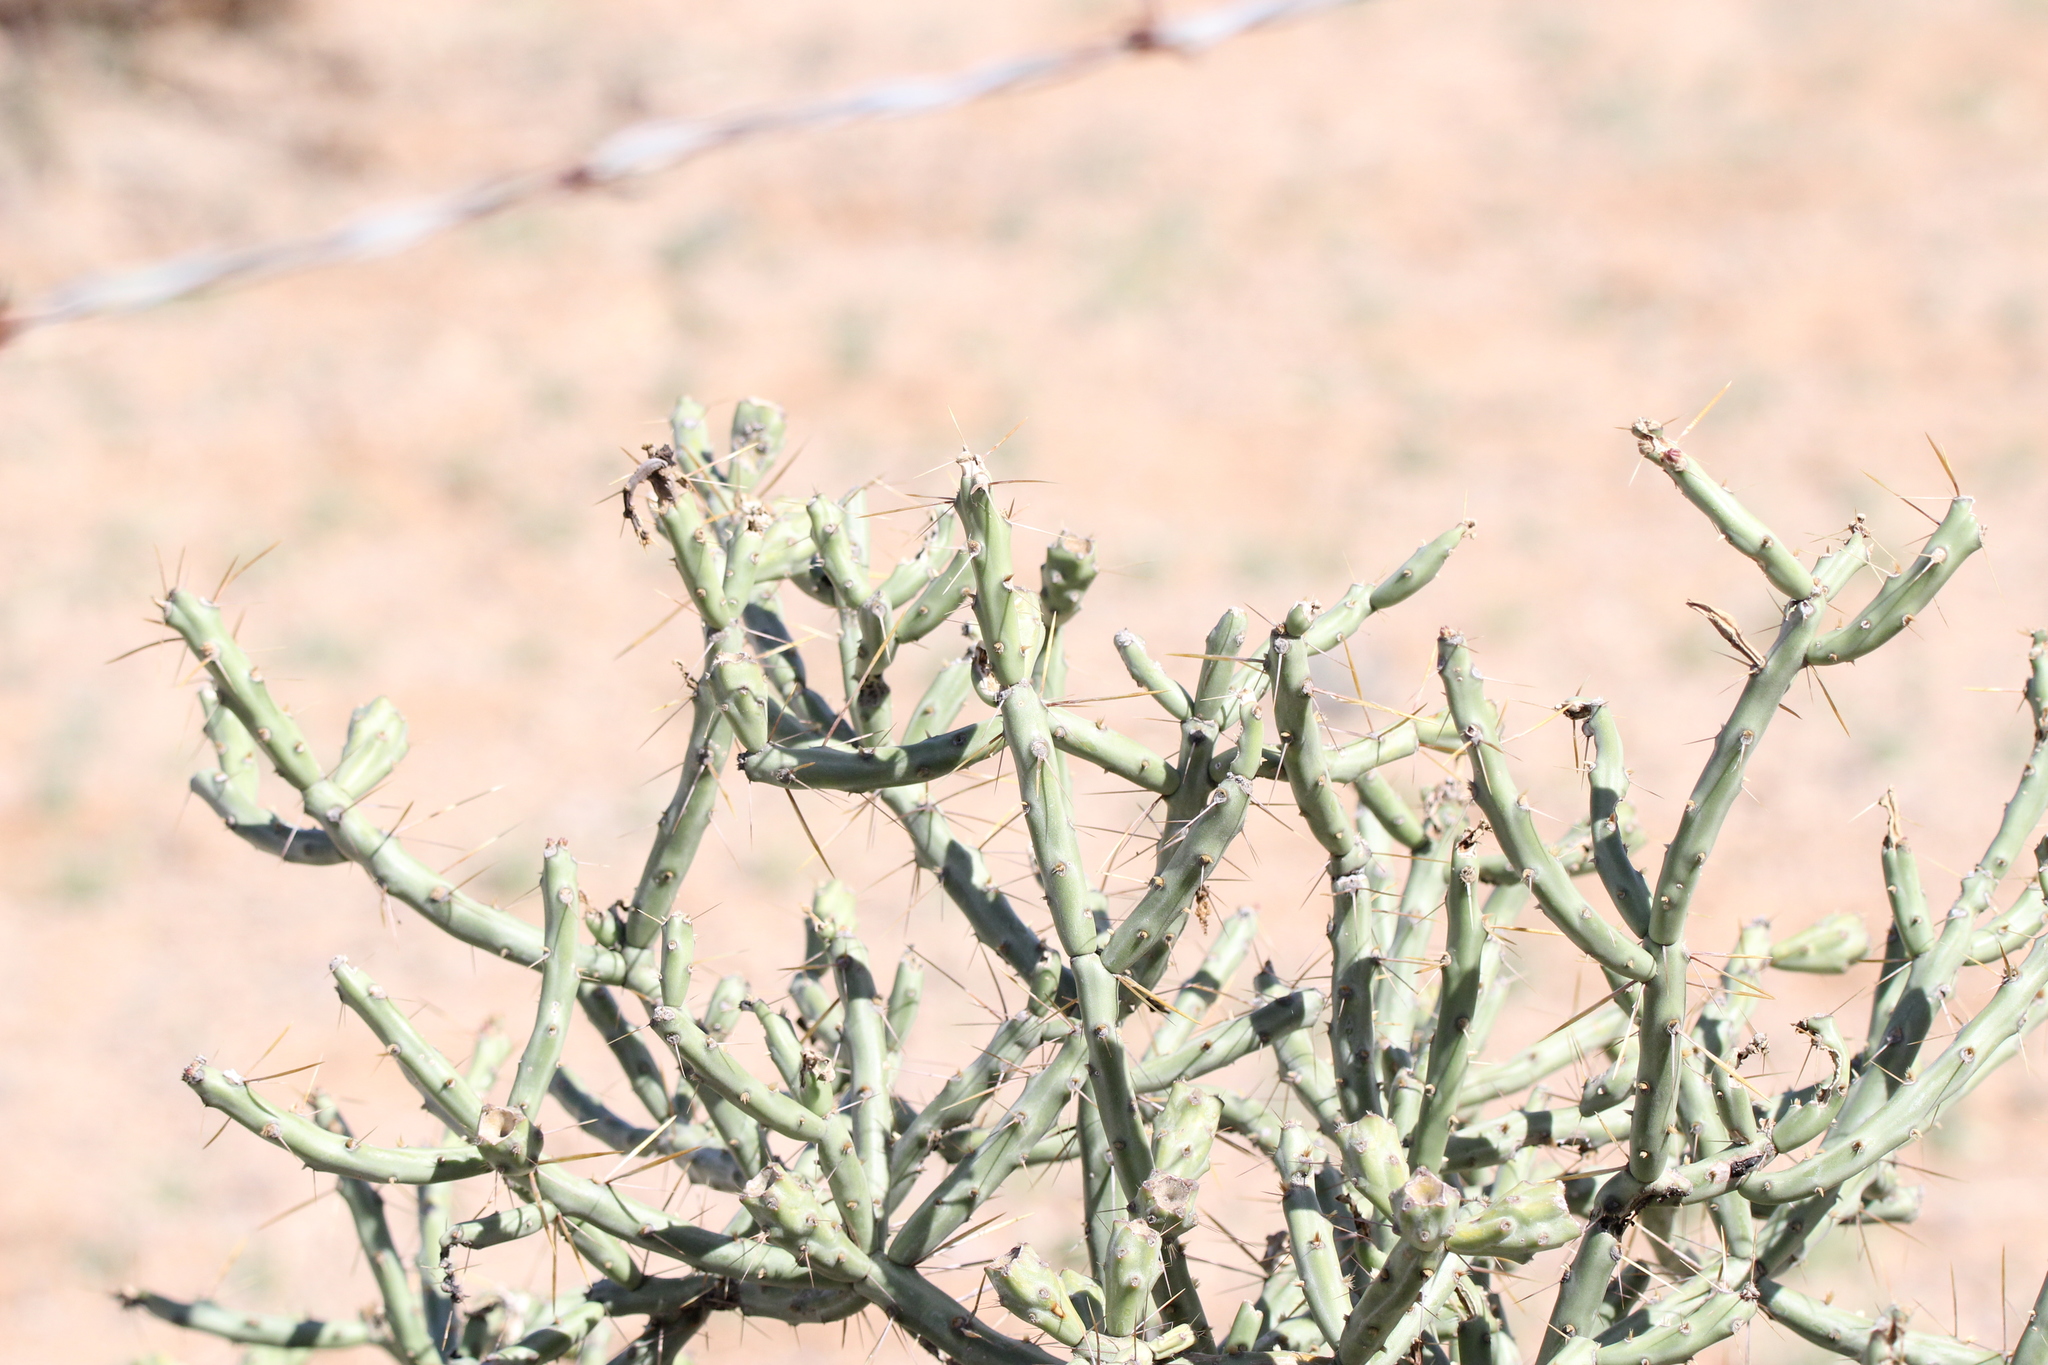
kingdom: Plantae
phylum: Tracheophyta
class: Magnoliopsida
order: Caryophyllales
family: Cactaceae
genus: Cylindropuntia
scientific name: Cylindropuntia arbuscula
